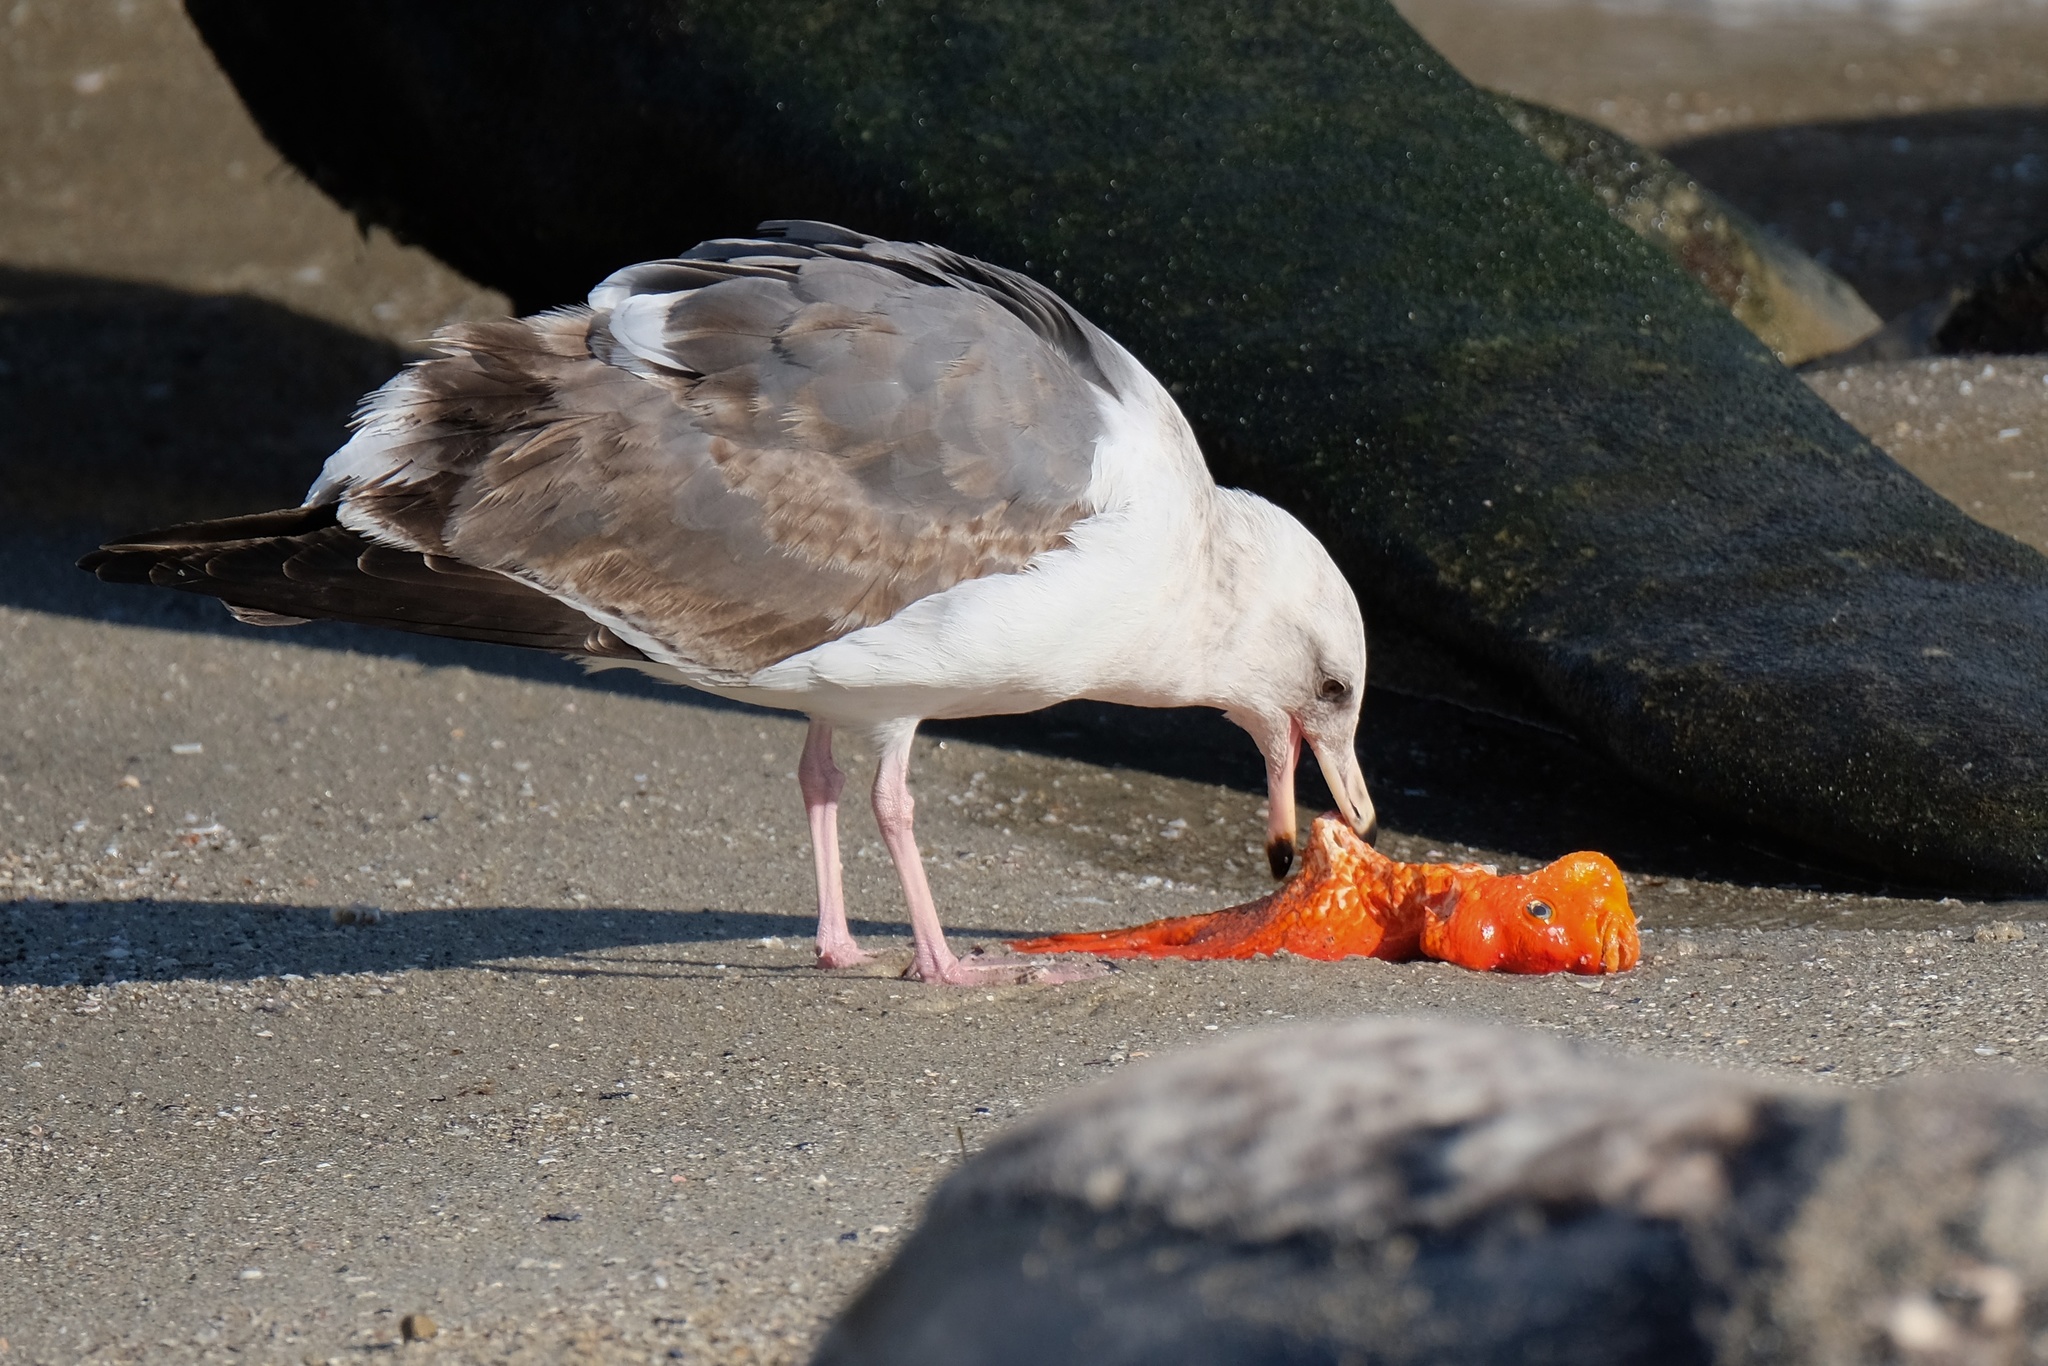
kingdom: Animalia
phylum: Chordata
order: Perciformes
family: Pomacentridae
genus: Hypsypops
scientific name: Hypsypops rubicundus
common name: Garibaldi
